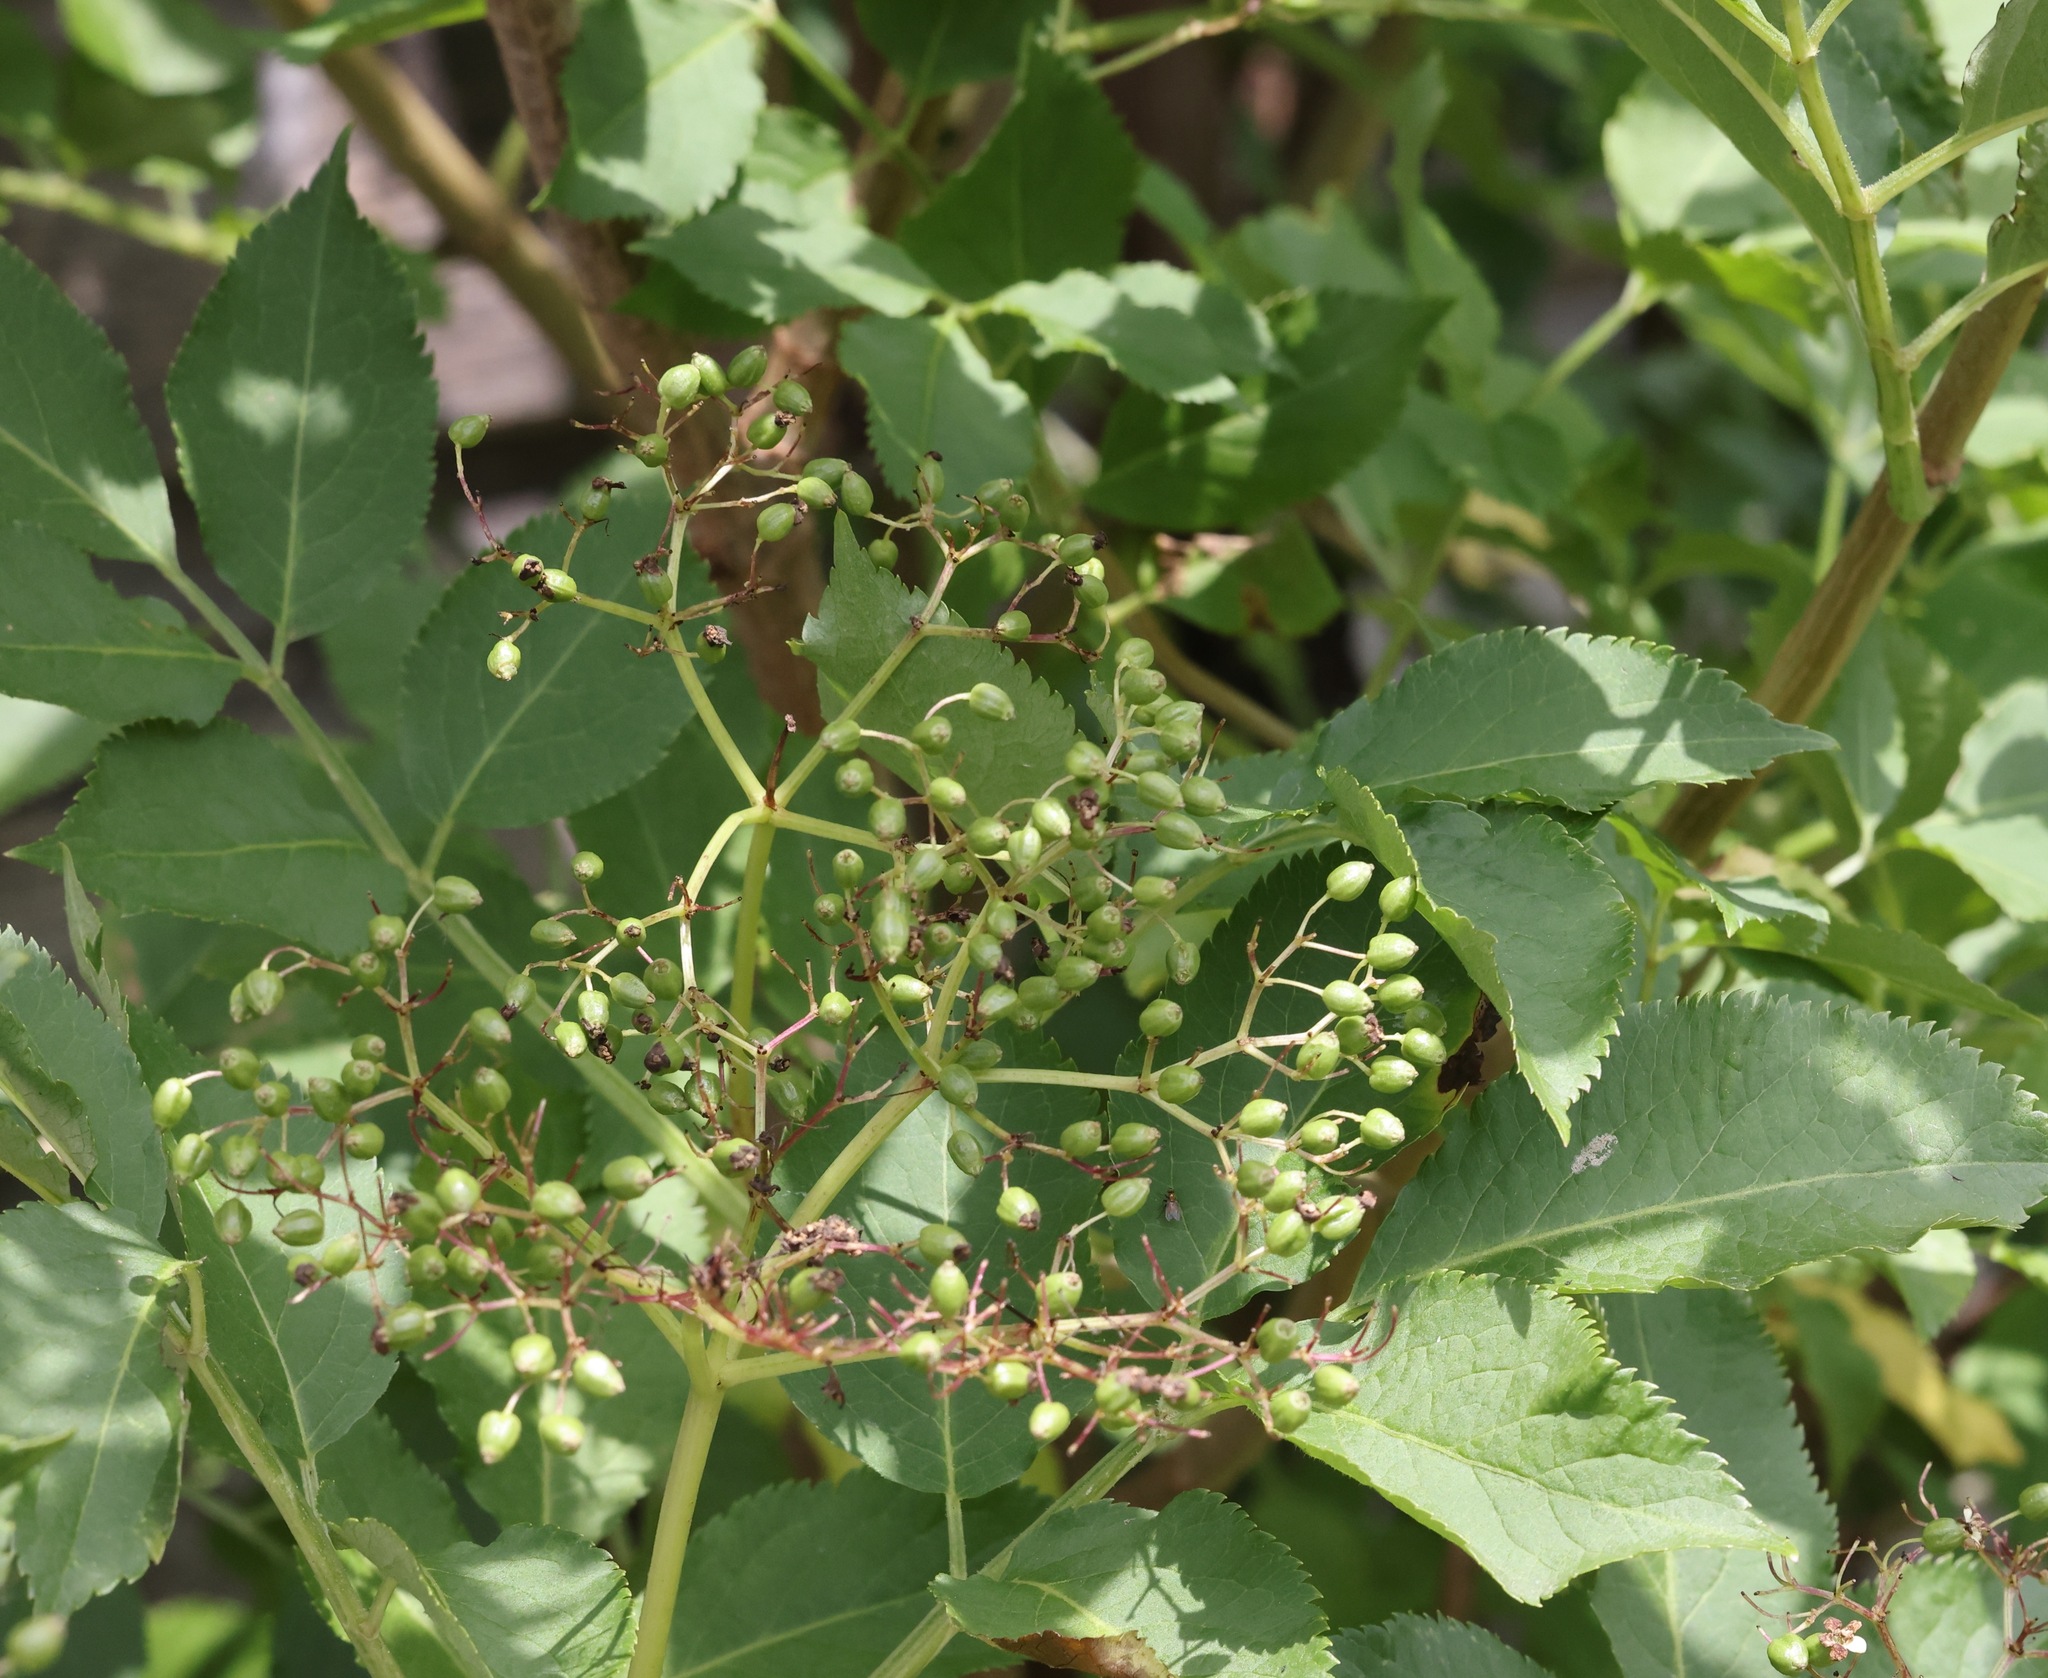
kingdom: Plantae
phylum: Tracheophyta
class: Magnoliopsida
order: Dipsacales
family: Viburnaceae
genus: Sambucus
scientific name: Sambucus nigra
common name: Elder
